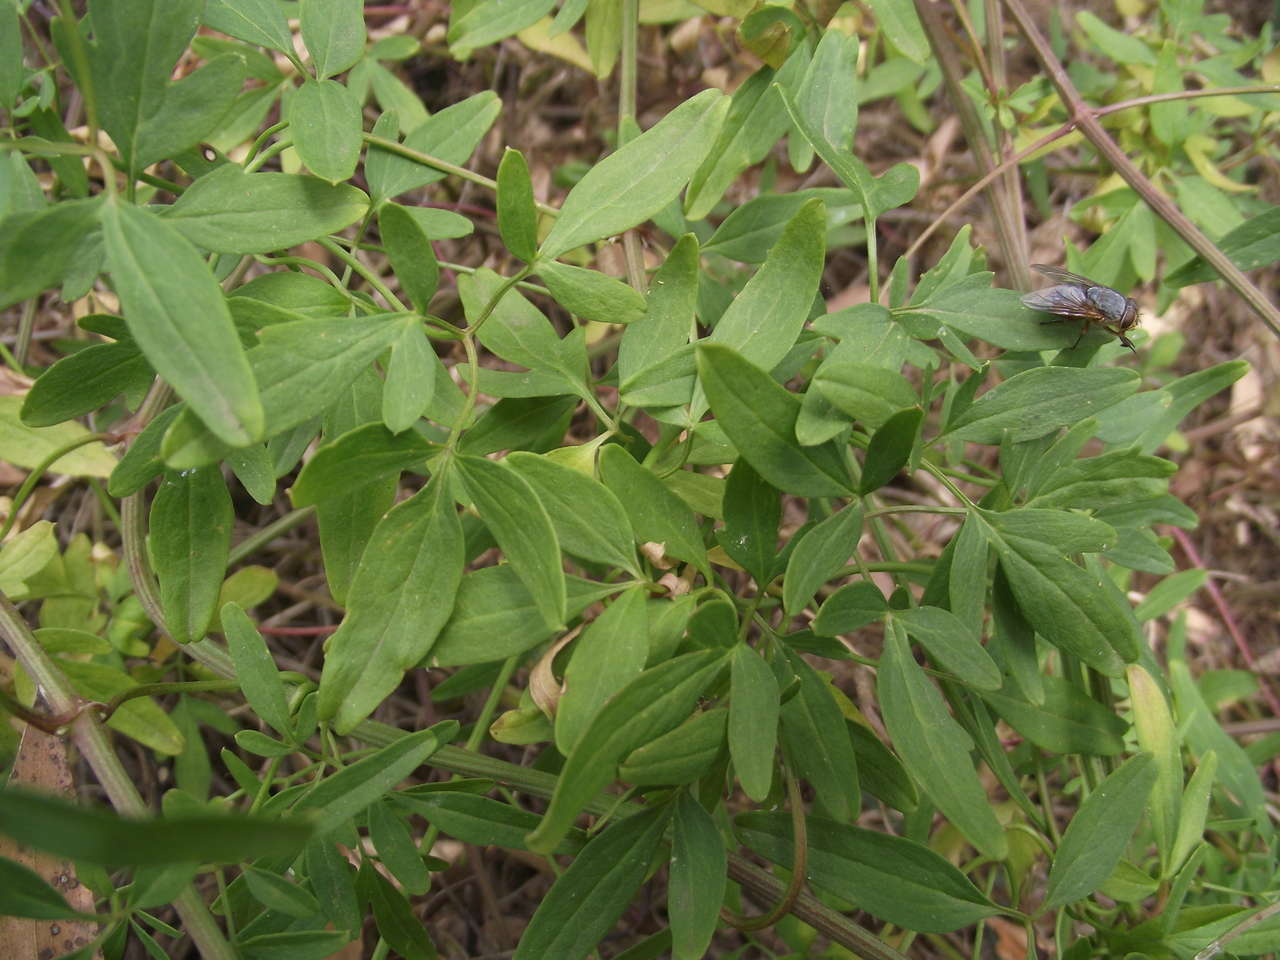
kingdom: Plantae
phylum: Tracheophyta
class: Magnoliopsida
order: Ranunculales
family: Ranunculaceae
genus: Clematis
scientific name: Clematis microphylla
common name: Headachevine
